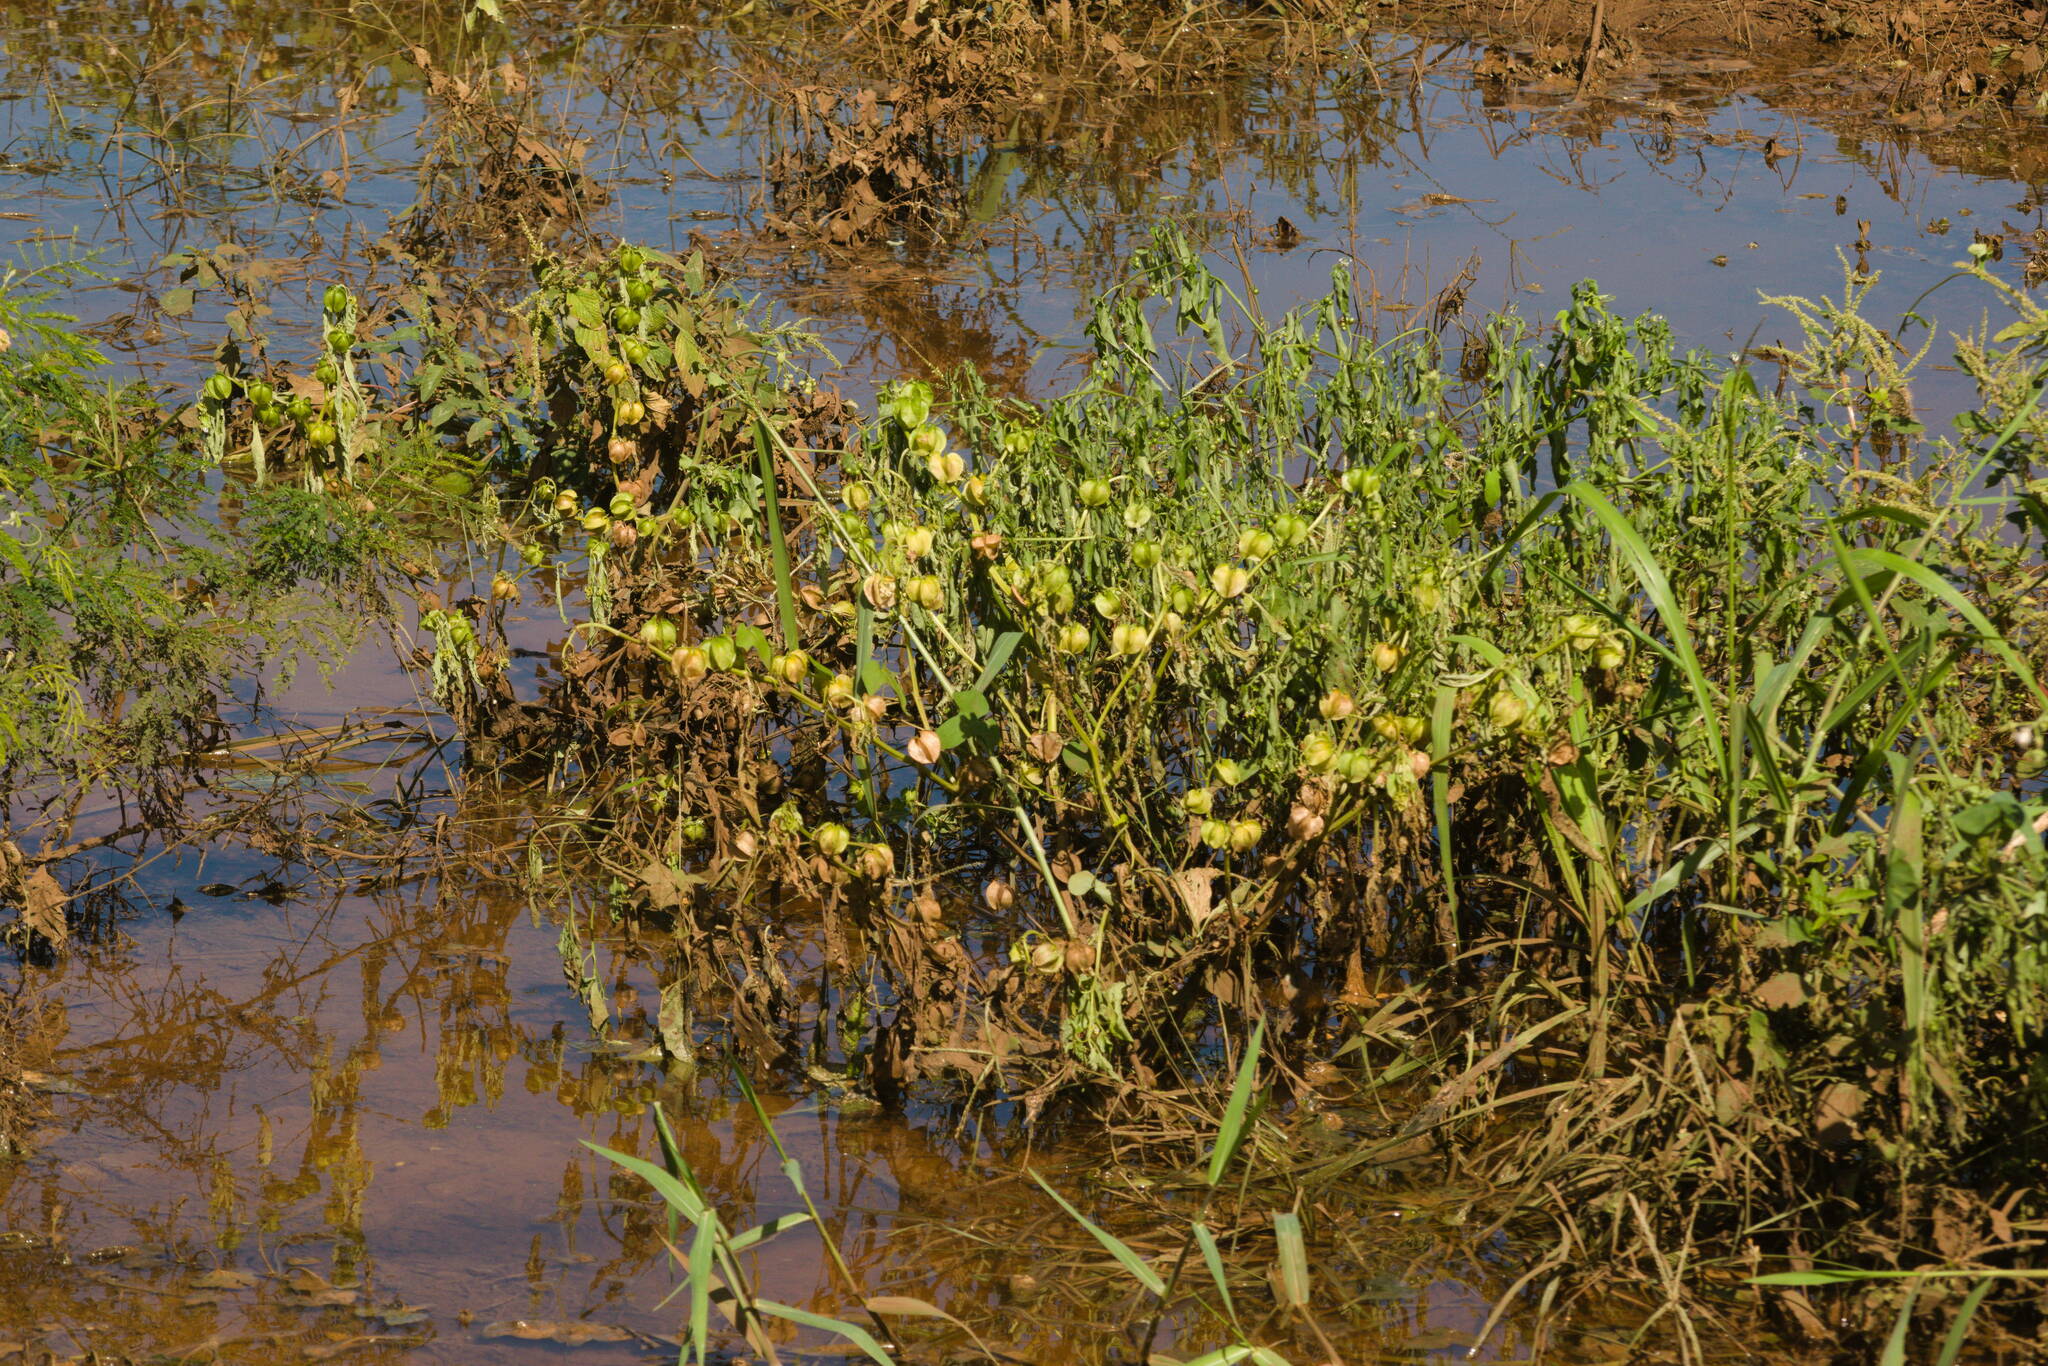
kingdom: Plantae
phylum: Tracheophyta
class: Magnoliopsida
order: Solanales
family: Solanaceae
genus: Nicandra
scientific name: Nicandra physalodes
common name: Apple-of-peru
